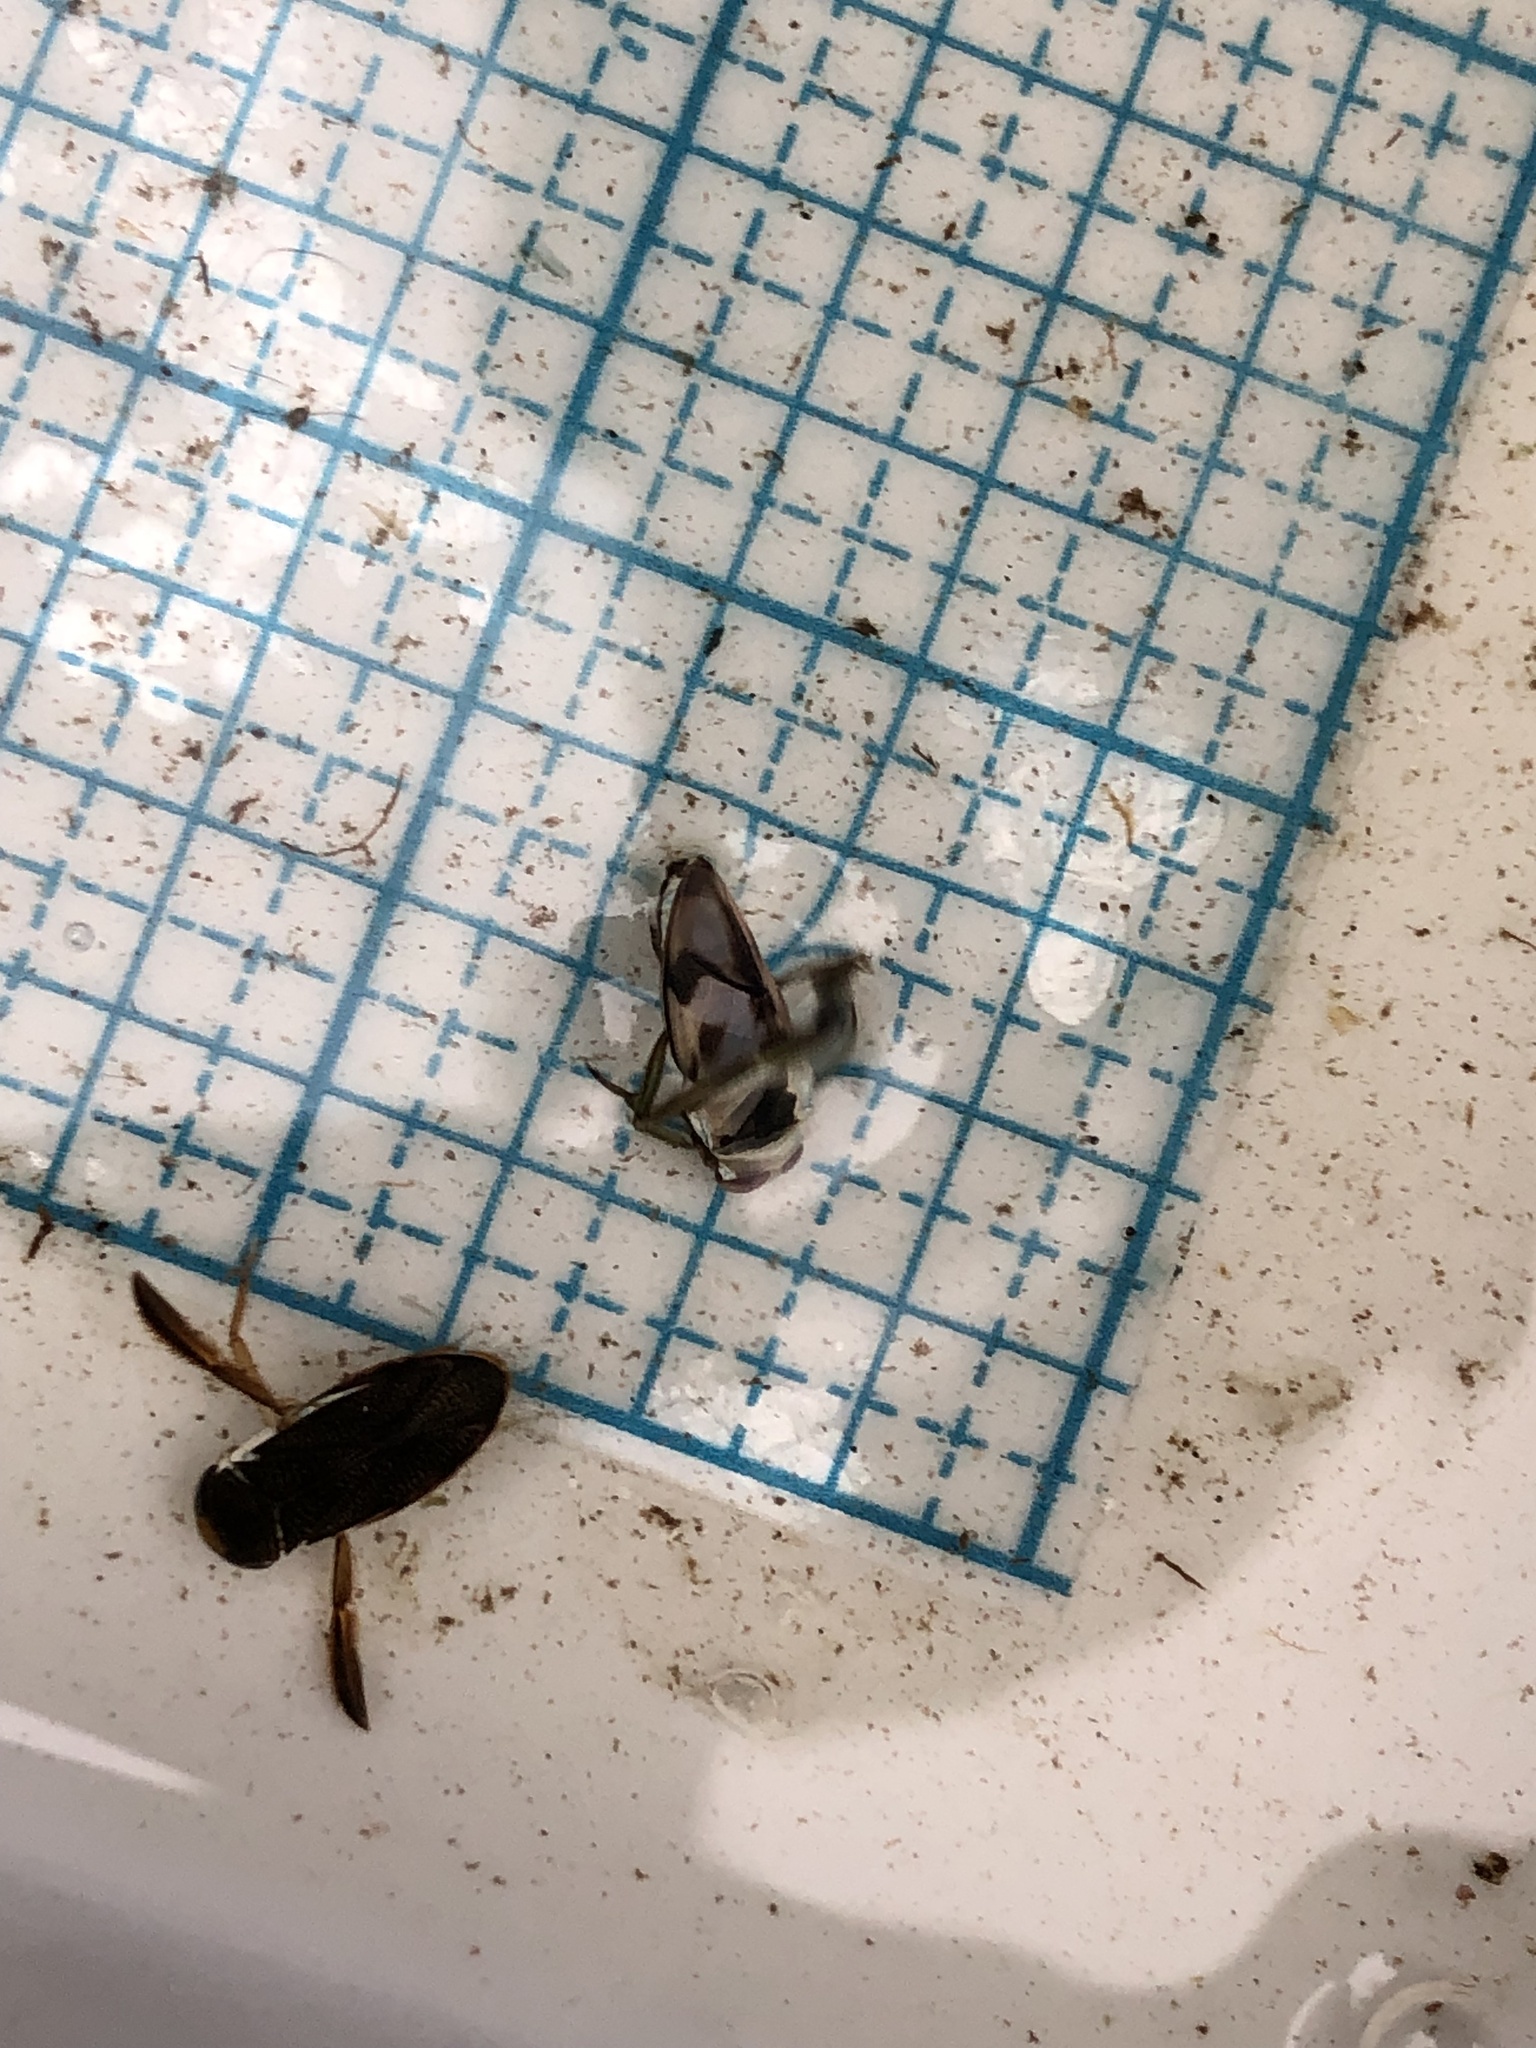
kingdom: Animalia
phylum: Arthropoda
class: Insecta
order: Hemiptera
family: Notonectidae
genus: Notonecta
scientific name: Notonecta undulata
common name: Grousewinged backswimmer
